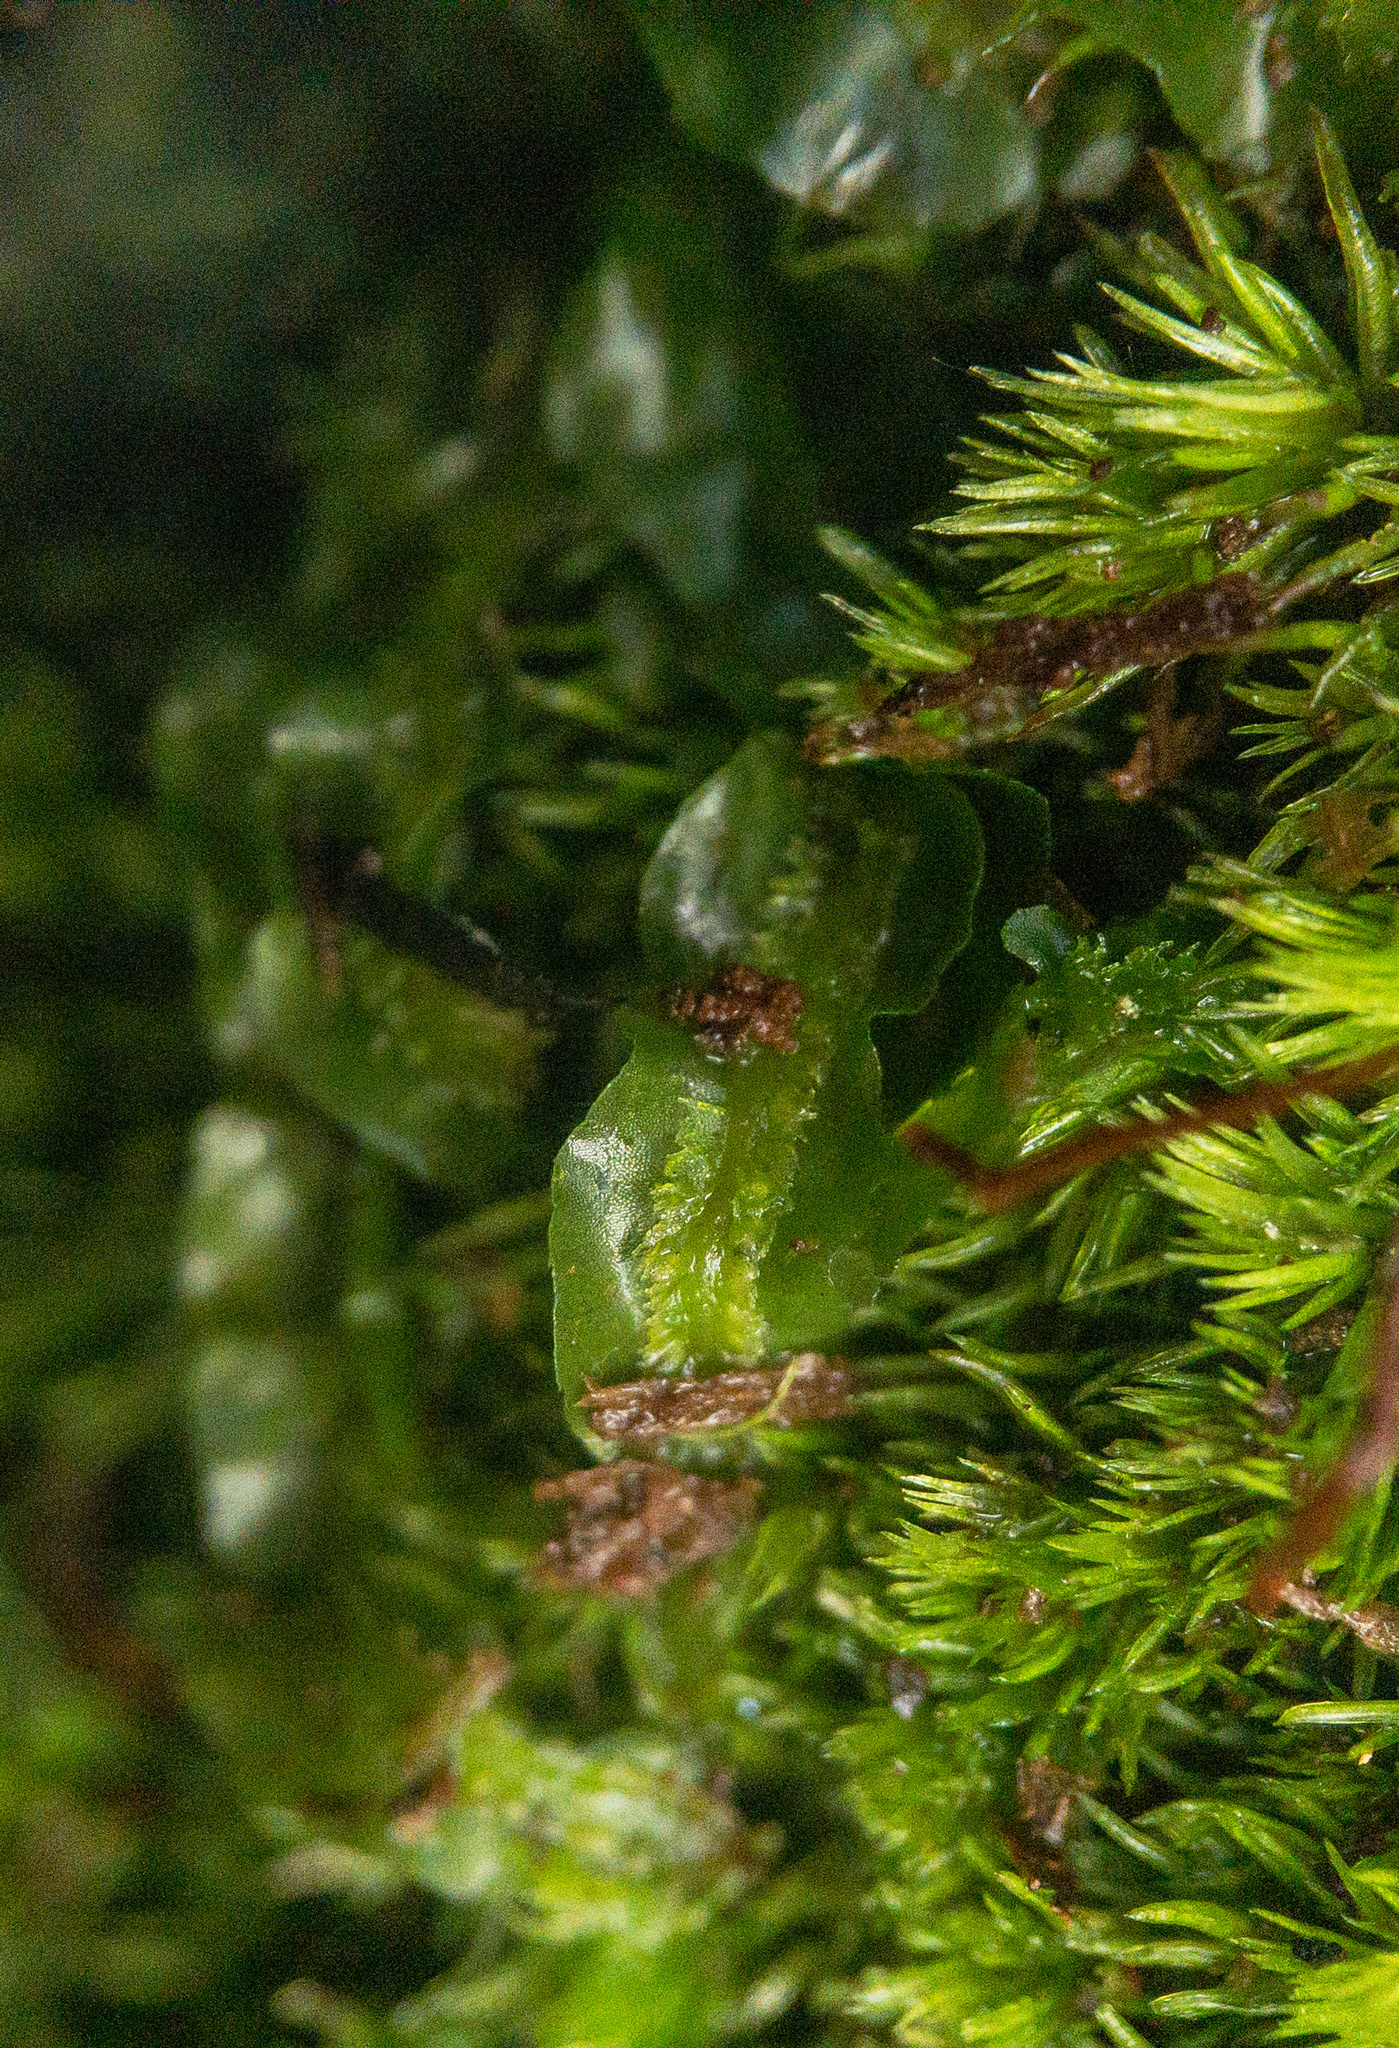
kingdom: Plantae
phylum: Marchantiophyta
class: Jungermanniopsida
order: Pallaviciniales
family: Pallaviciniaceae
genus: Pallavicinia
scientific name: Pallavicinia lyellii
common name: Veilwort
